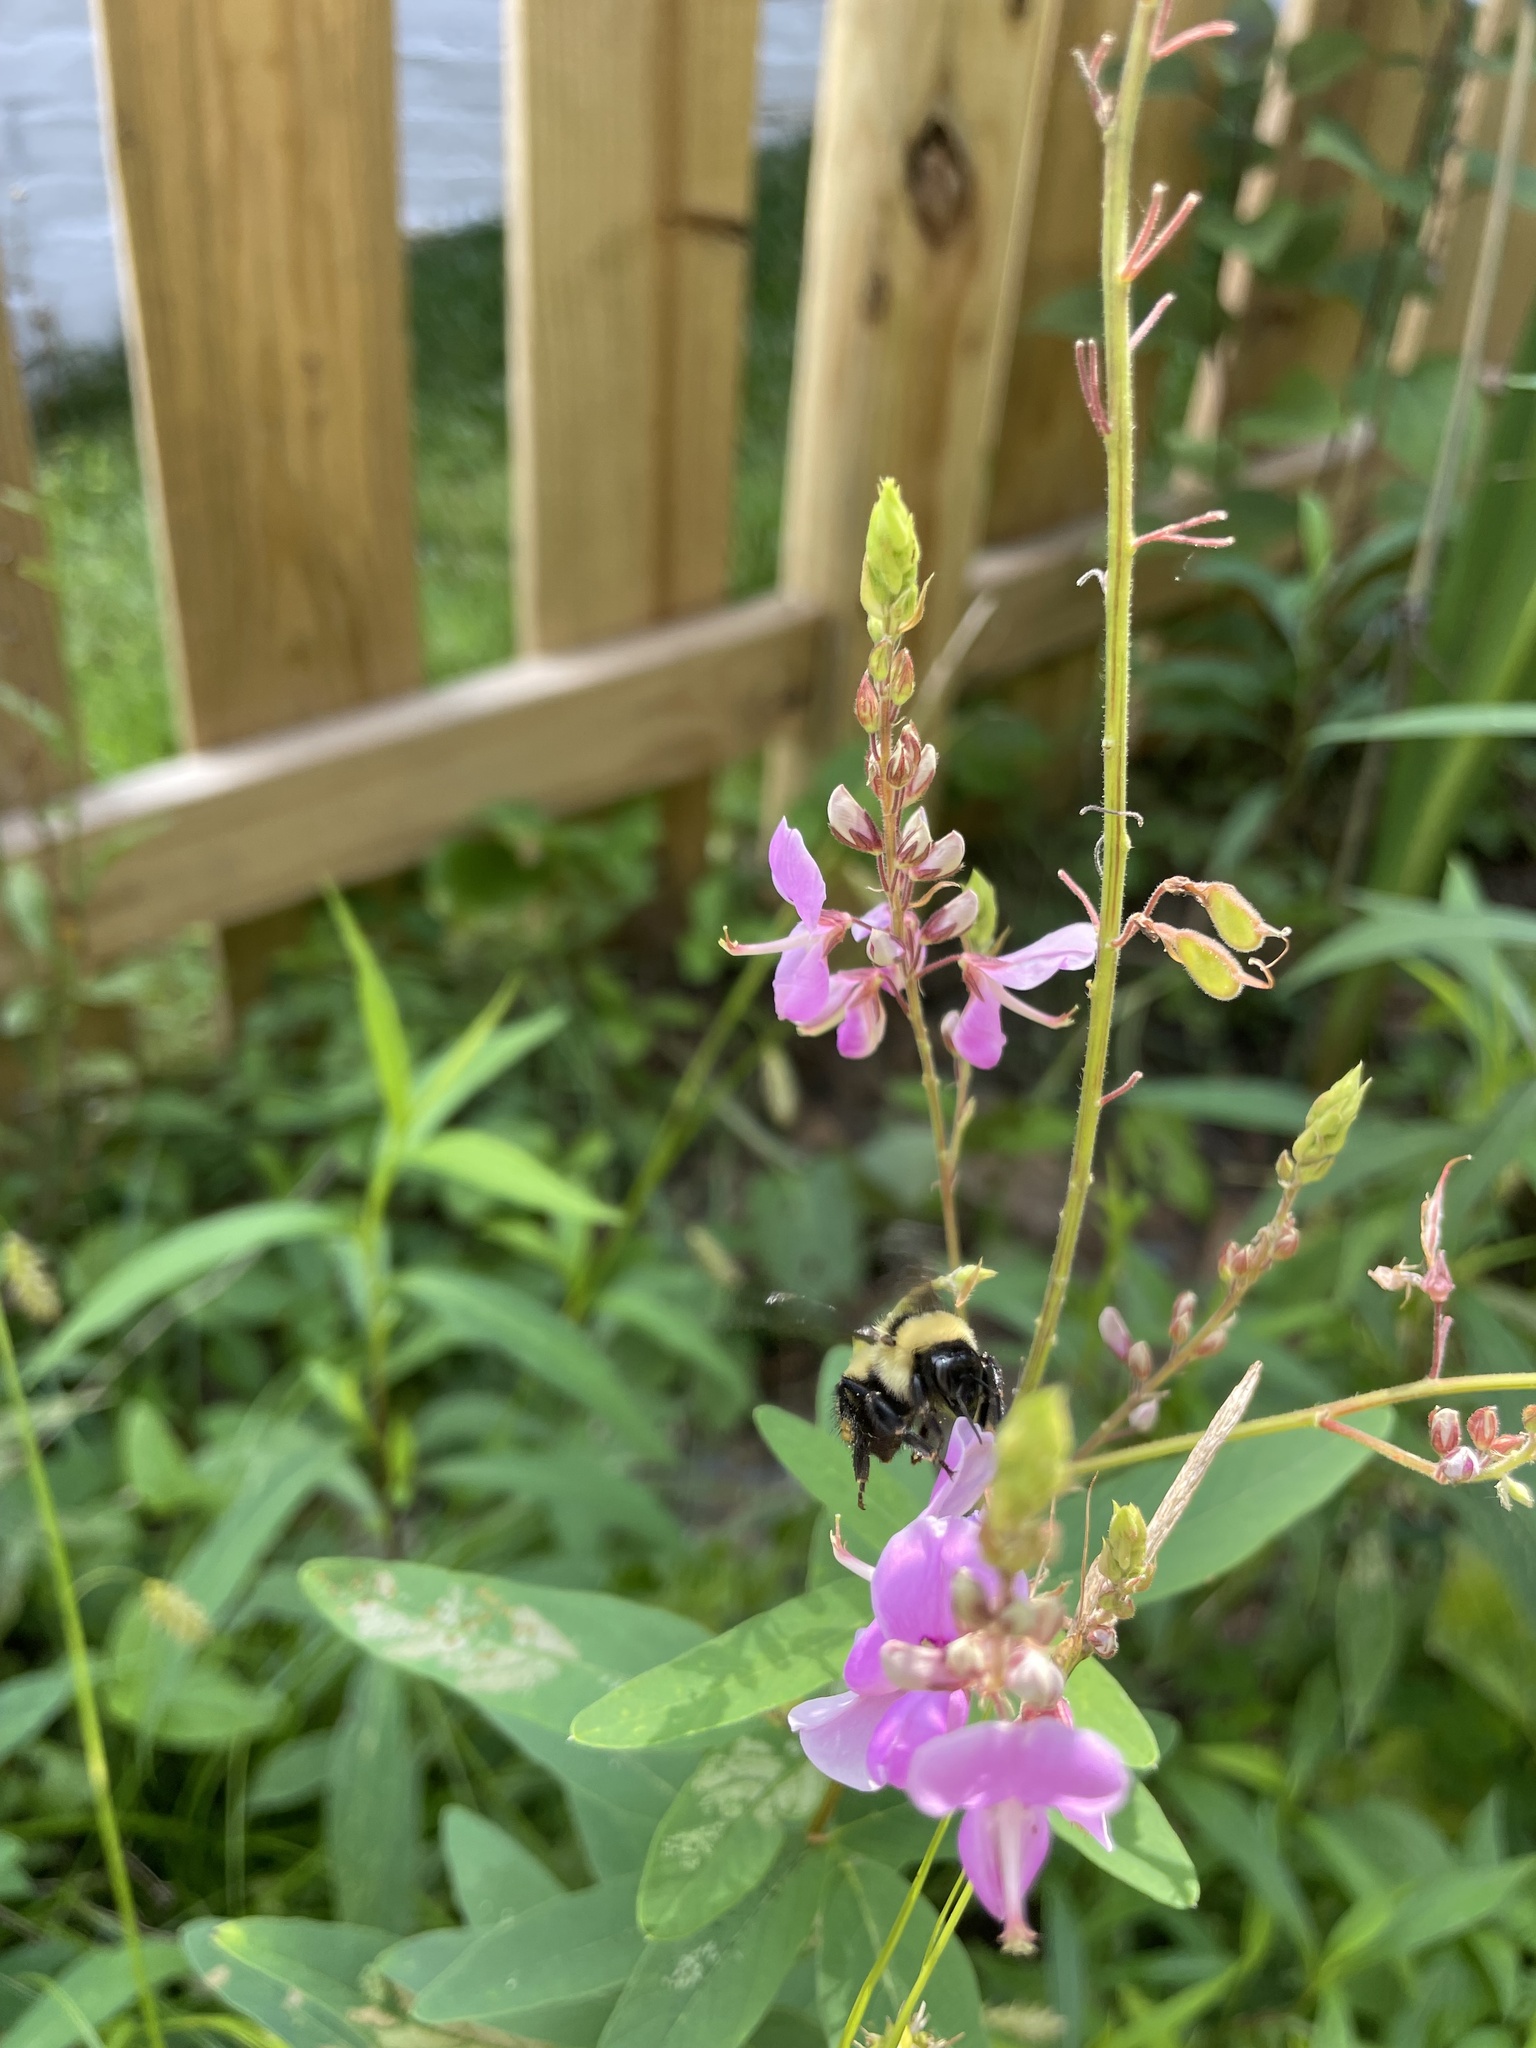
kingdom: Animalia
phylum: Arthropoda
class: Insecta
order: Hymenoptera
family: Apidae
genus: Bombus
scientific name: Bombus fervidus
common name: Yellow bumble bee
